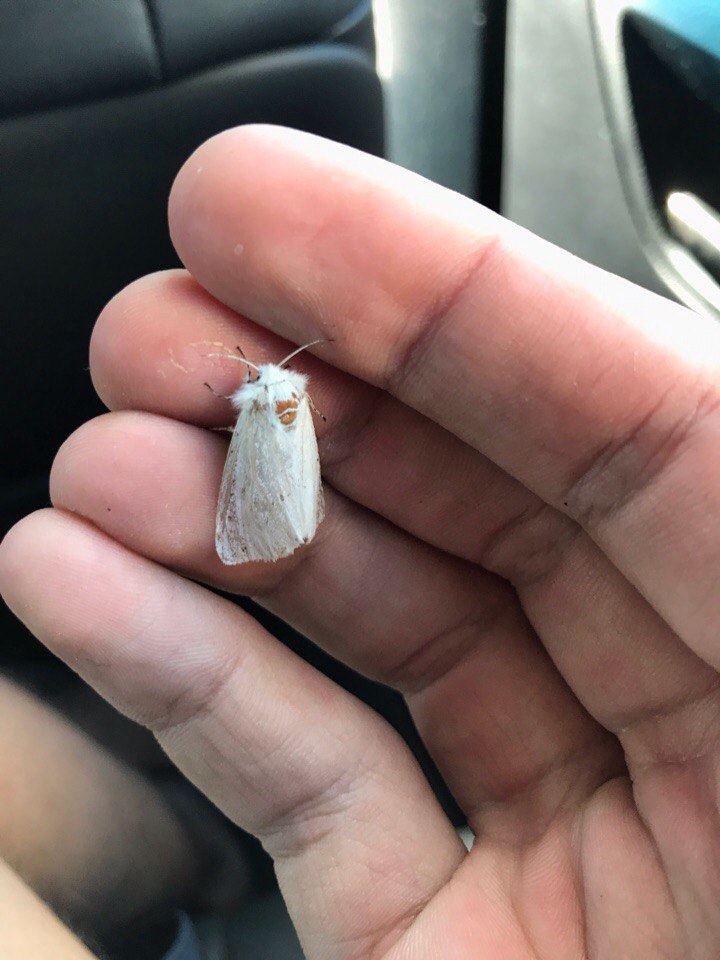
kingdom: Animalia
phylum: Arthropoda
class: Insecta
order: Lepidoptera
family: Erebidae
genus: Spilosoma
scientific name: Spilosoma lubricipeda
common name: White ermine
